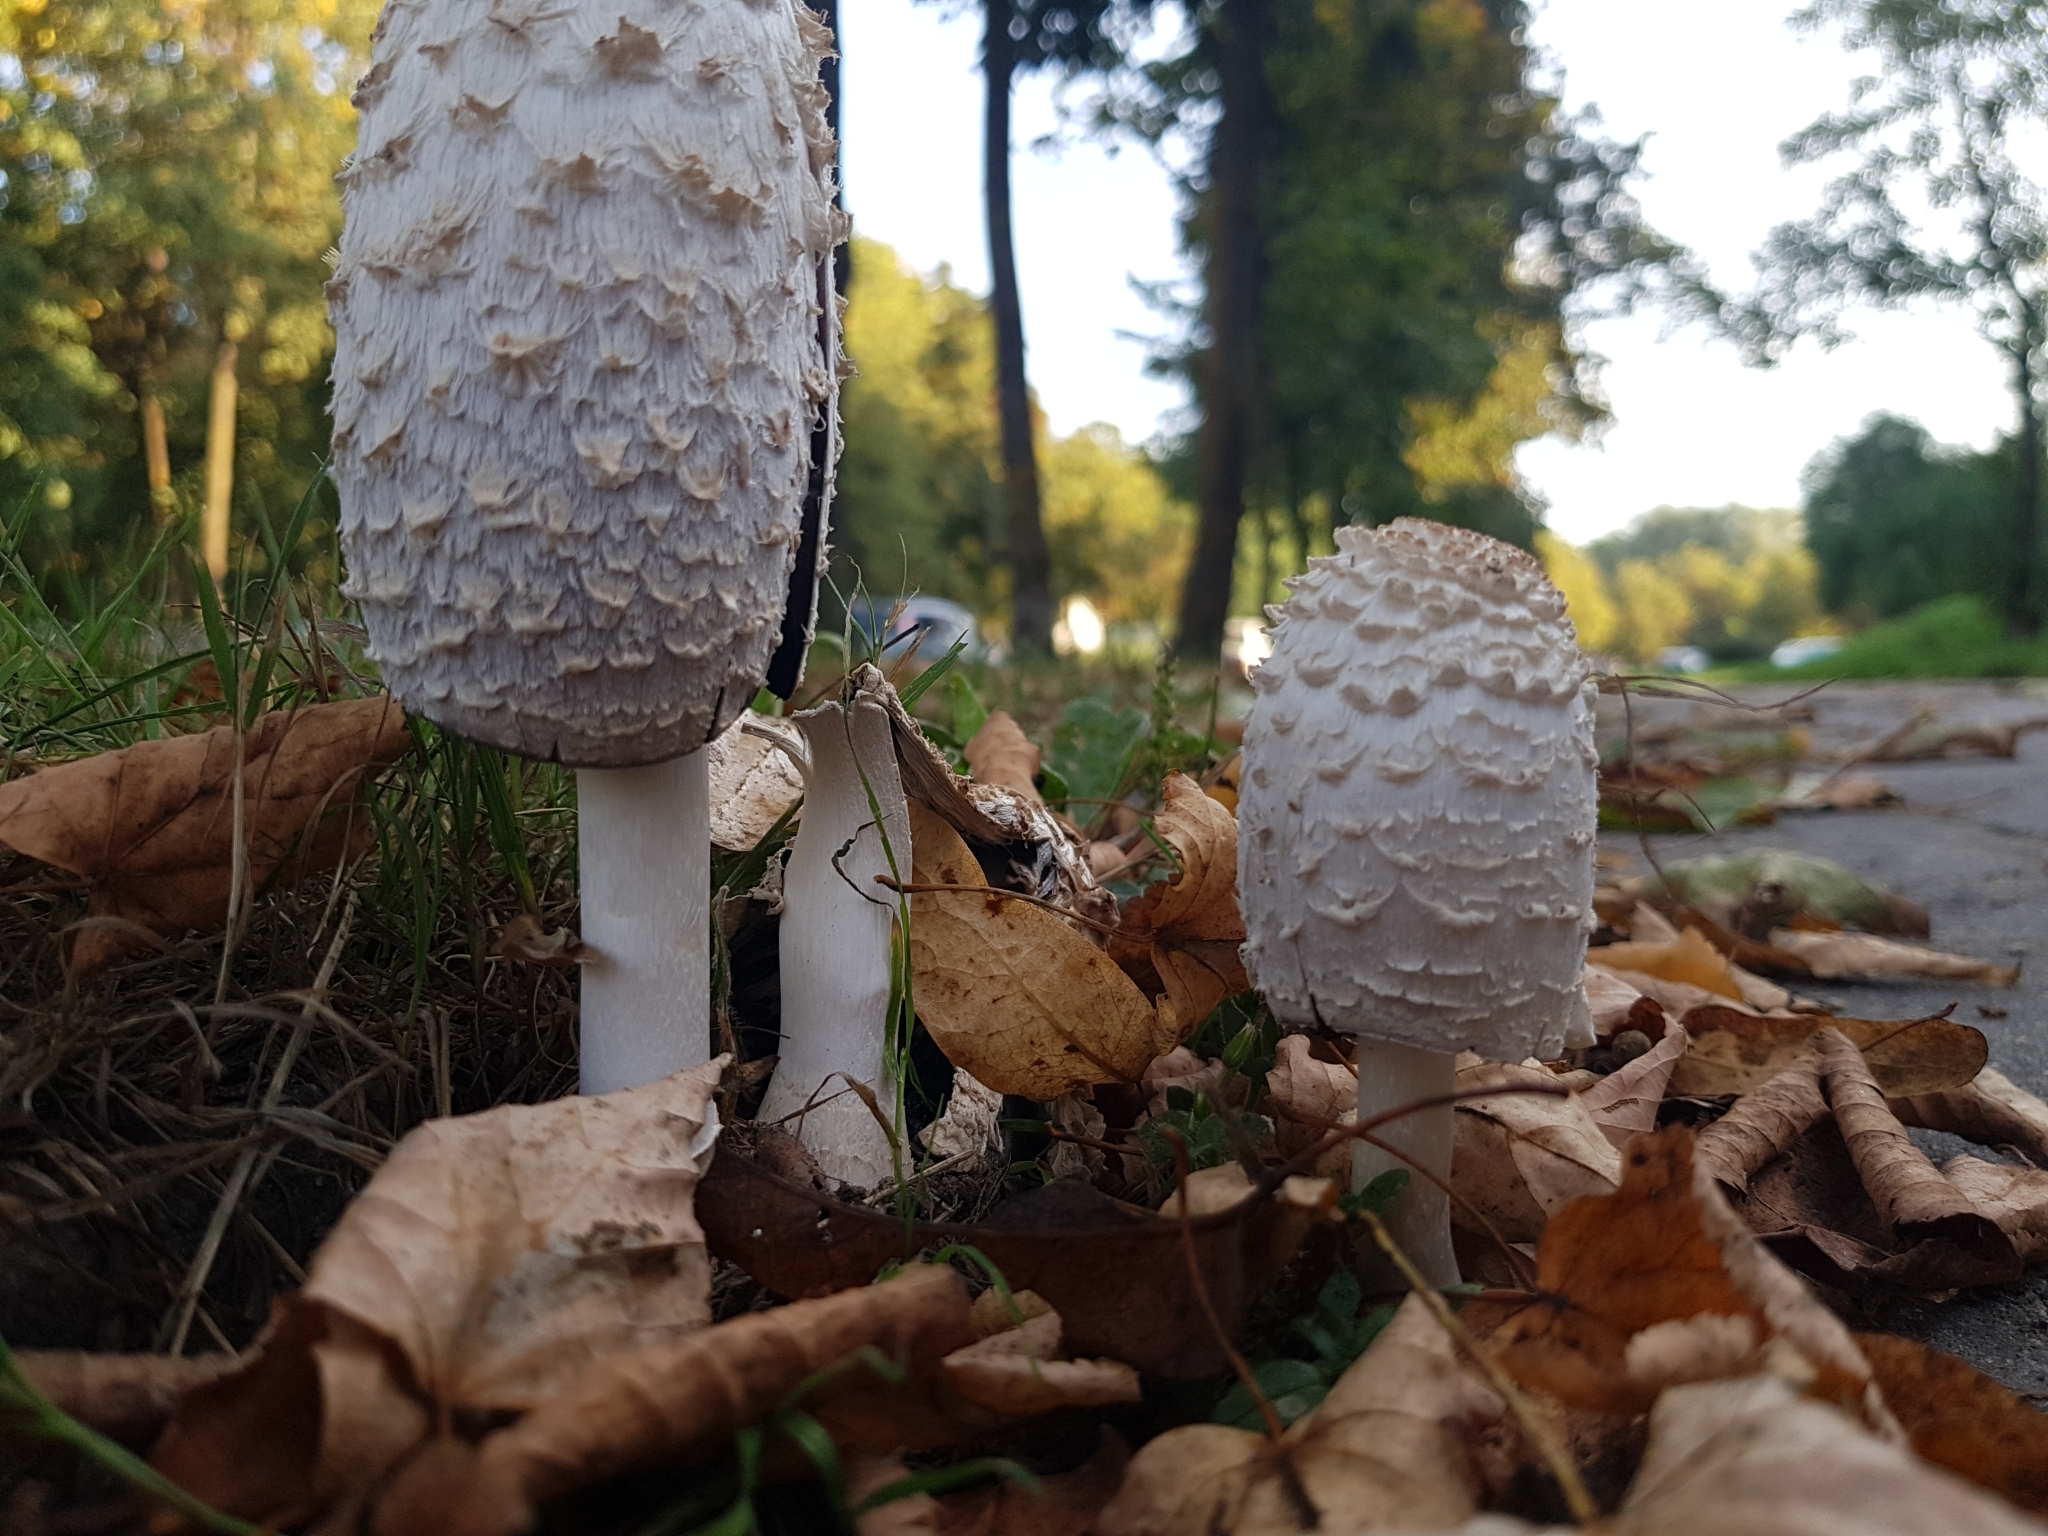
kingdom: Fungi
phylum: Basidiomycota
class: Agaricomycetes
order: Agaricales
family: Agaricaceae
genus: Coprinus
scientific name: Coprinus comatus
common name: Lawyer's wig
